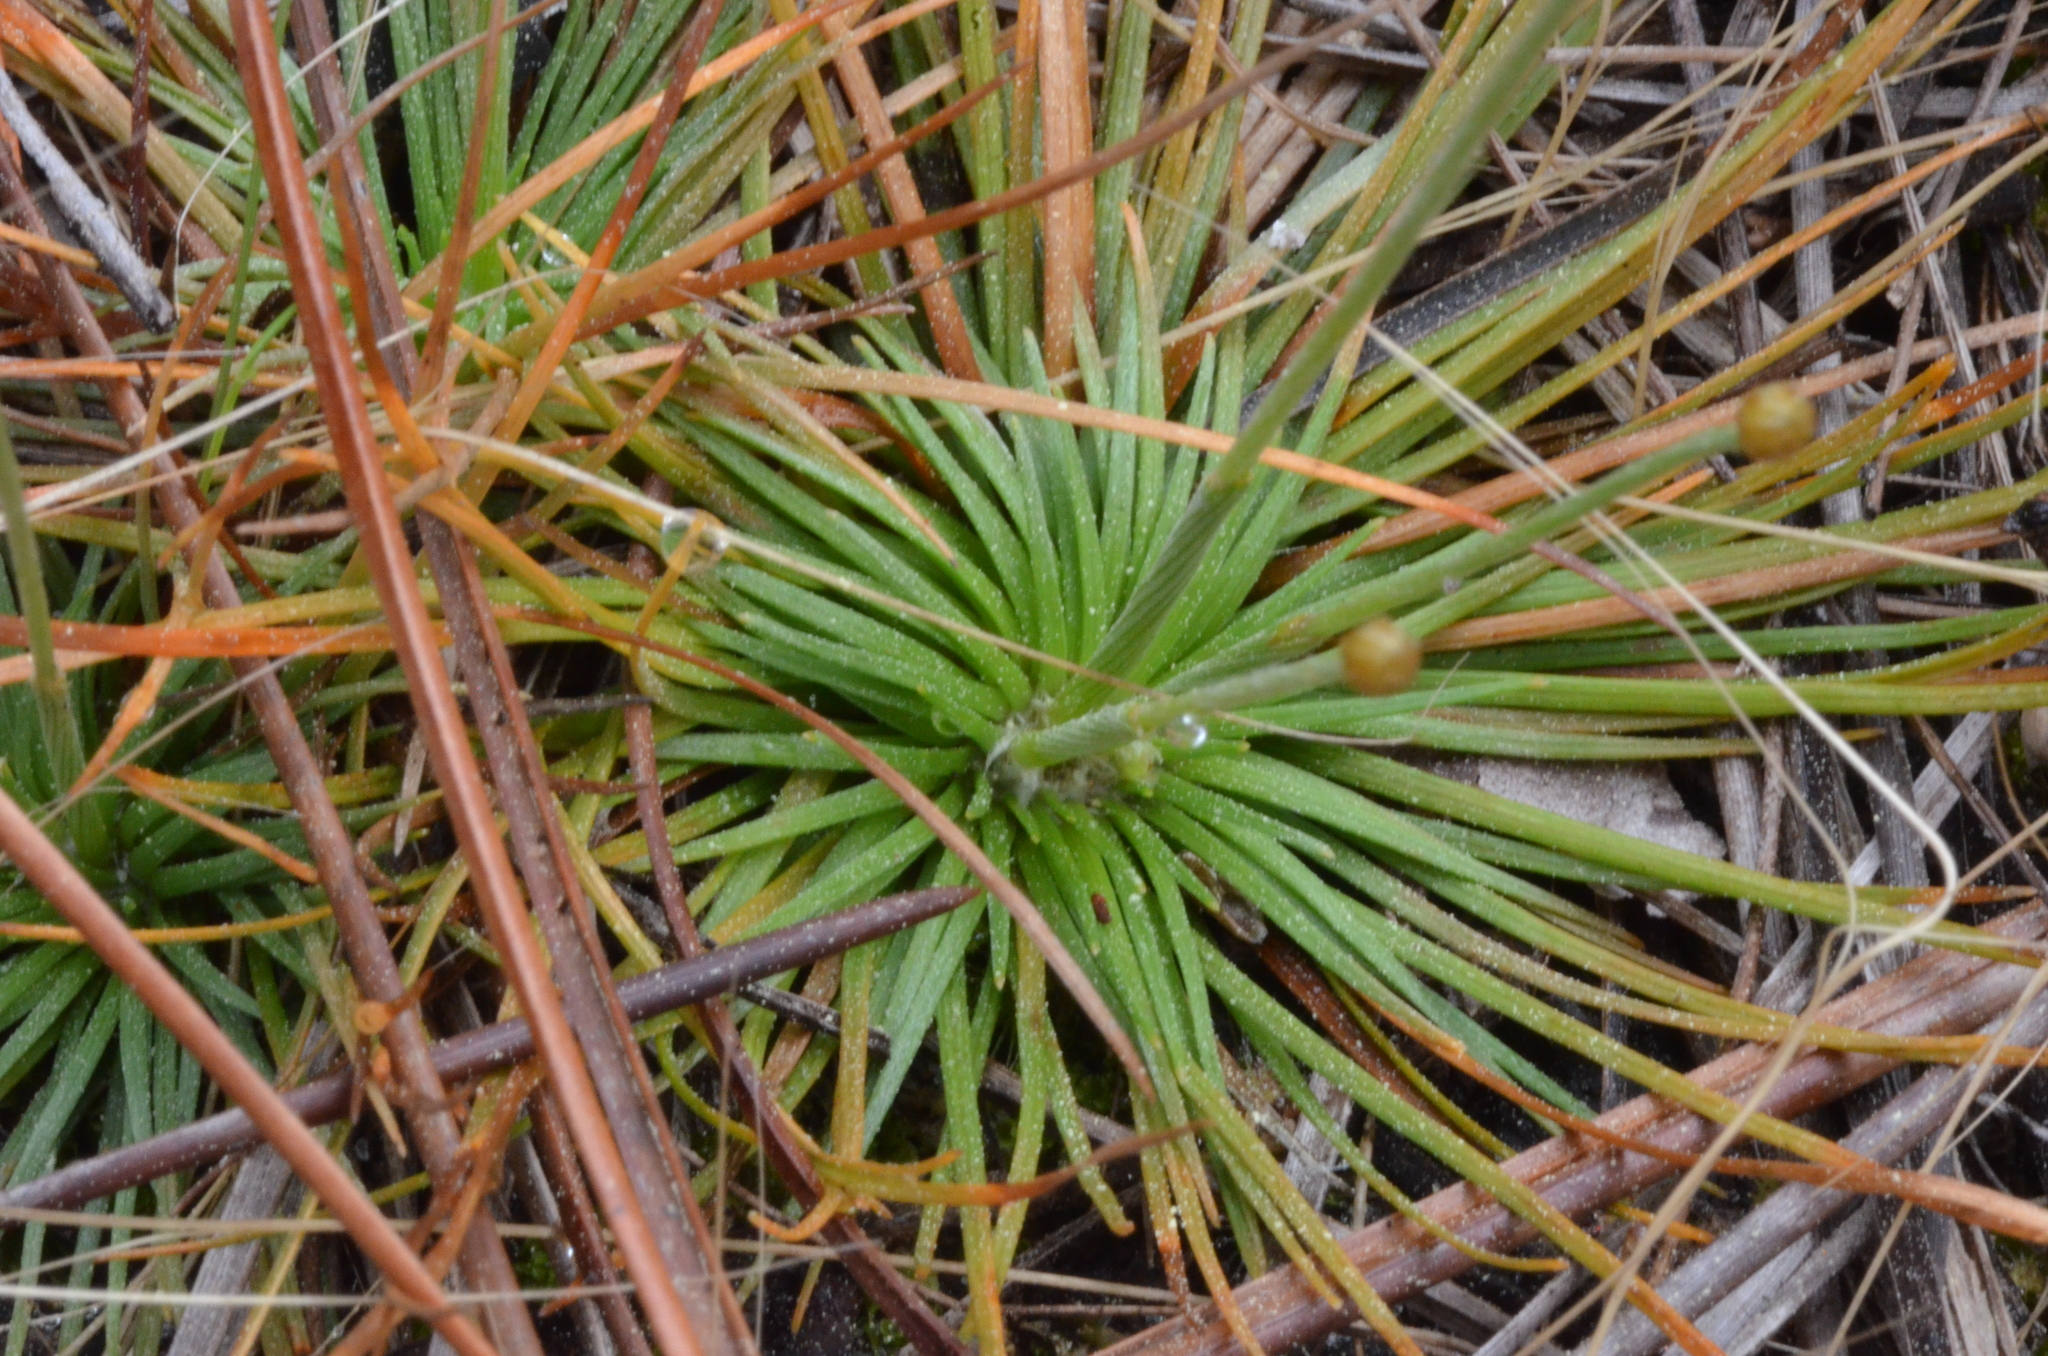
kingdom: Plantae
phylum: Tracheophyta
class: Liliopsida
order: Poales
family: Eriocaulaceae
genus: Syngonanthus
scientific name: Syngonanthus flavidulus
